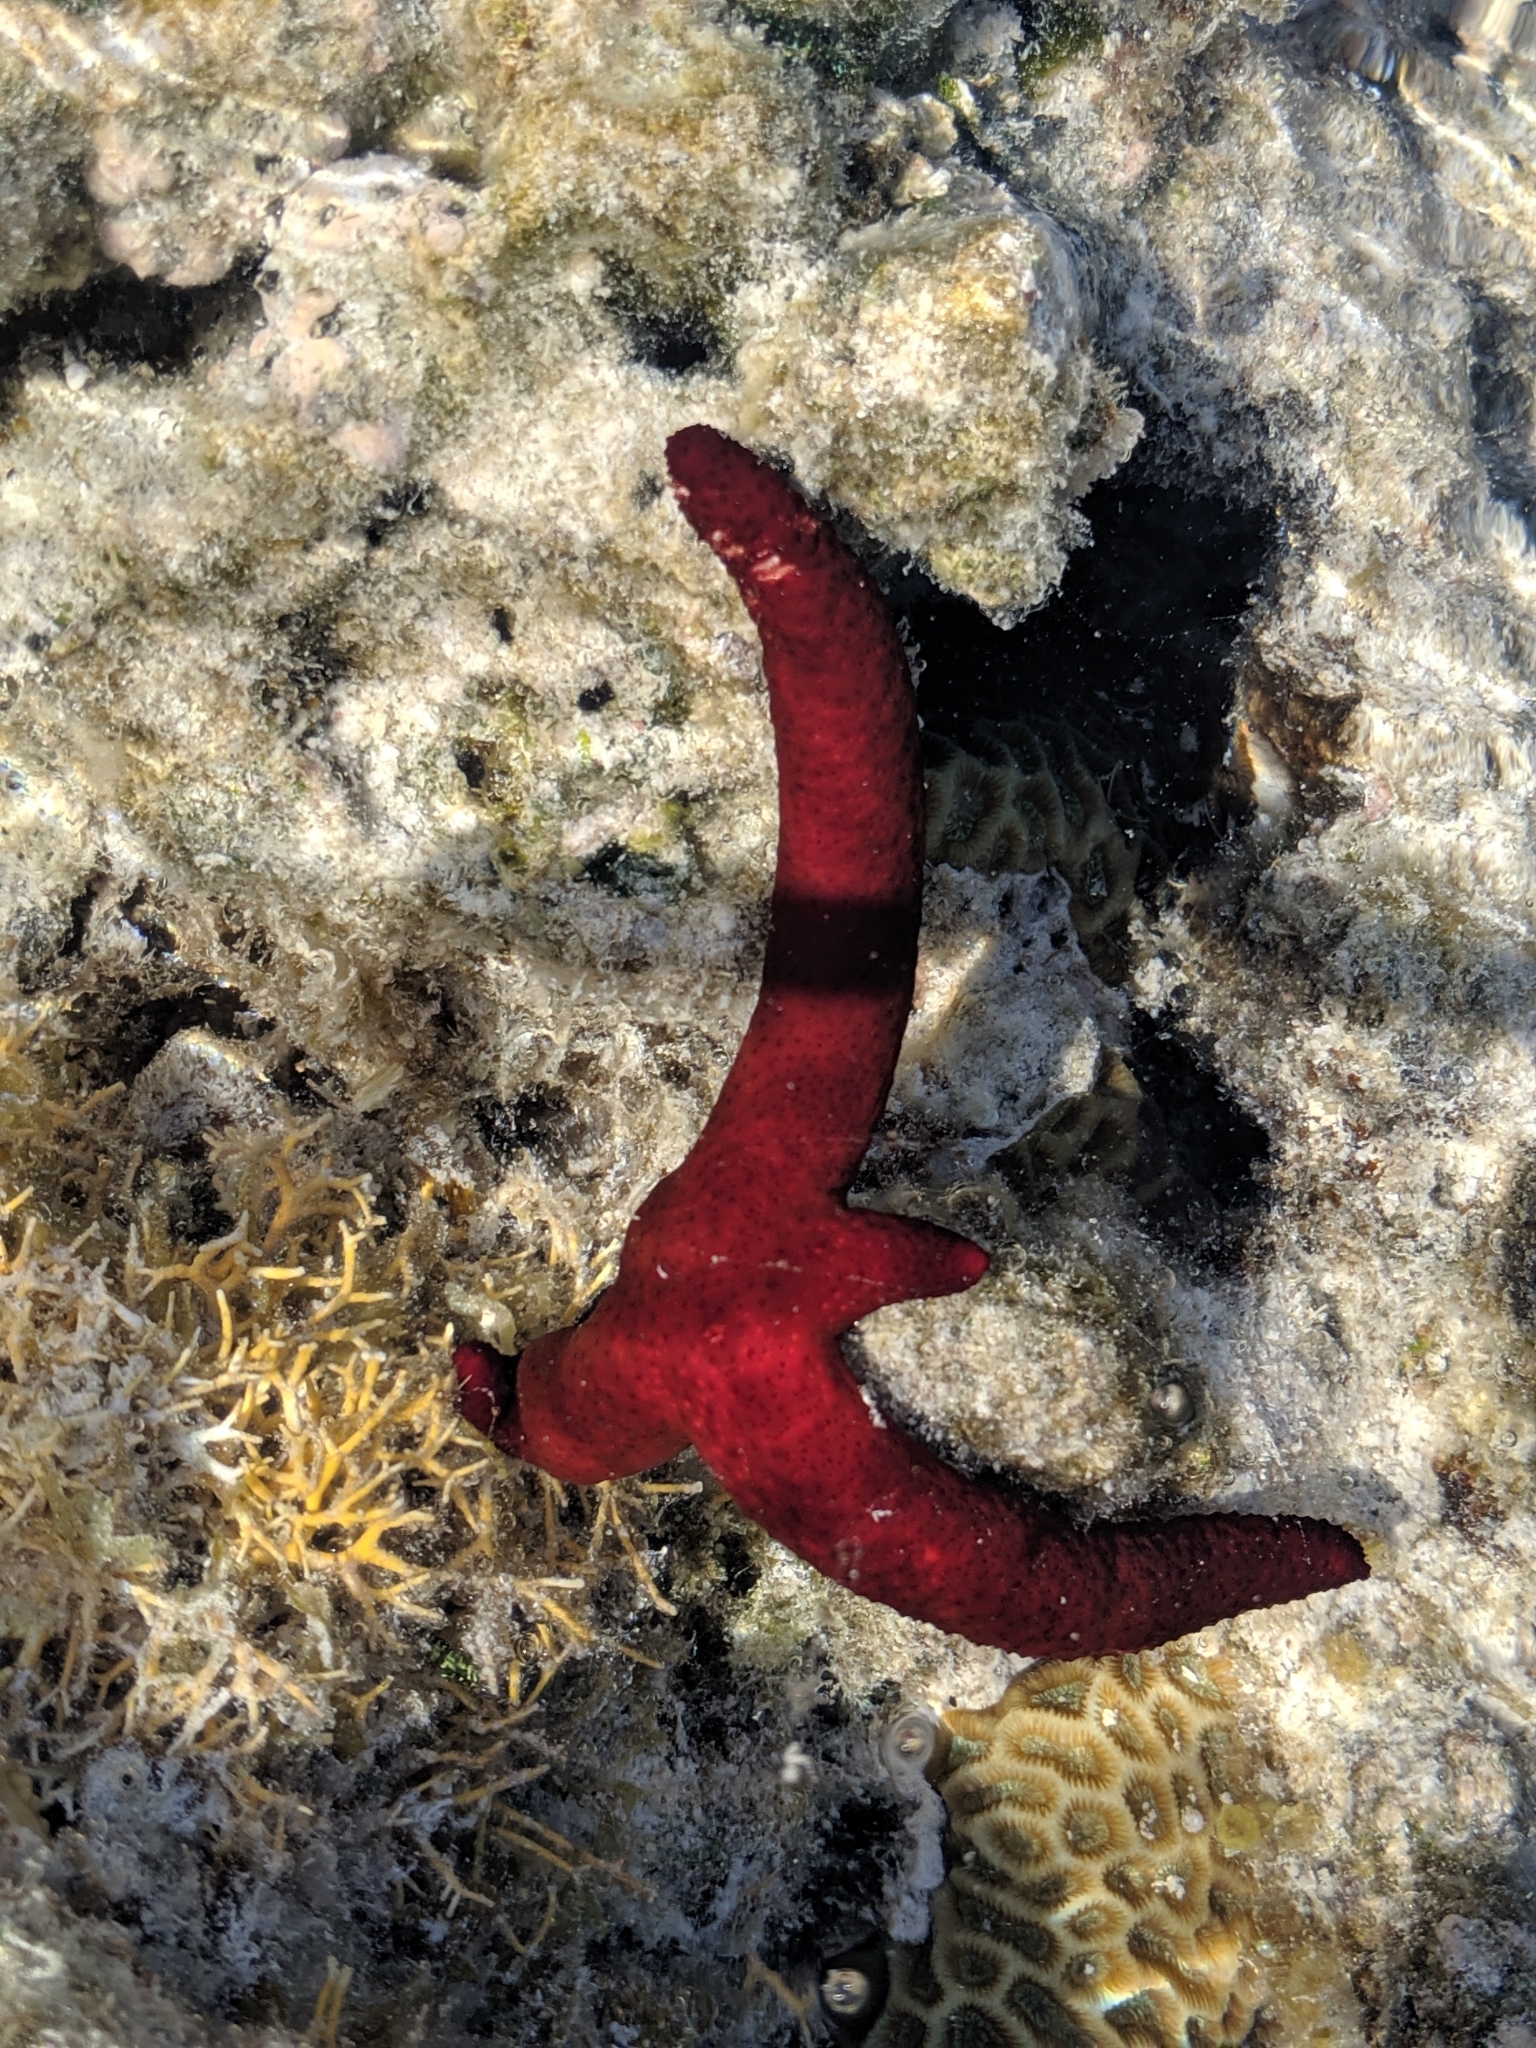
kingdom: Animalia
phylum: Echinodermata
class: Asteroidea
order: Spinulosida
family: Echinasteridae
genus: Echinaster
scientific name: Echinaster luzonicus
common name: Luzon seastar
